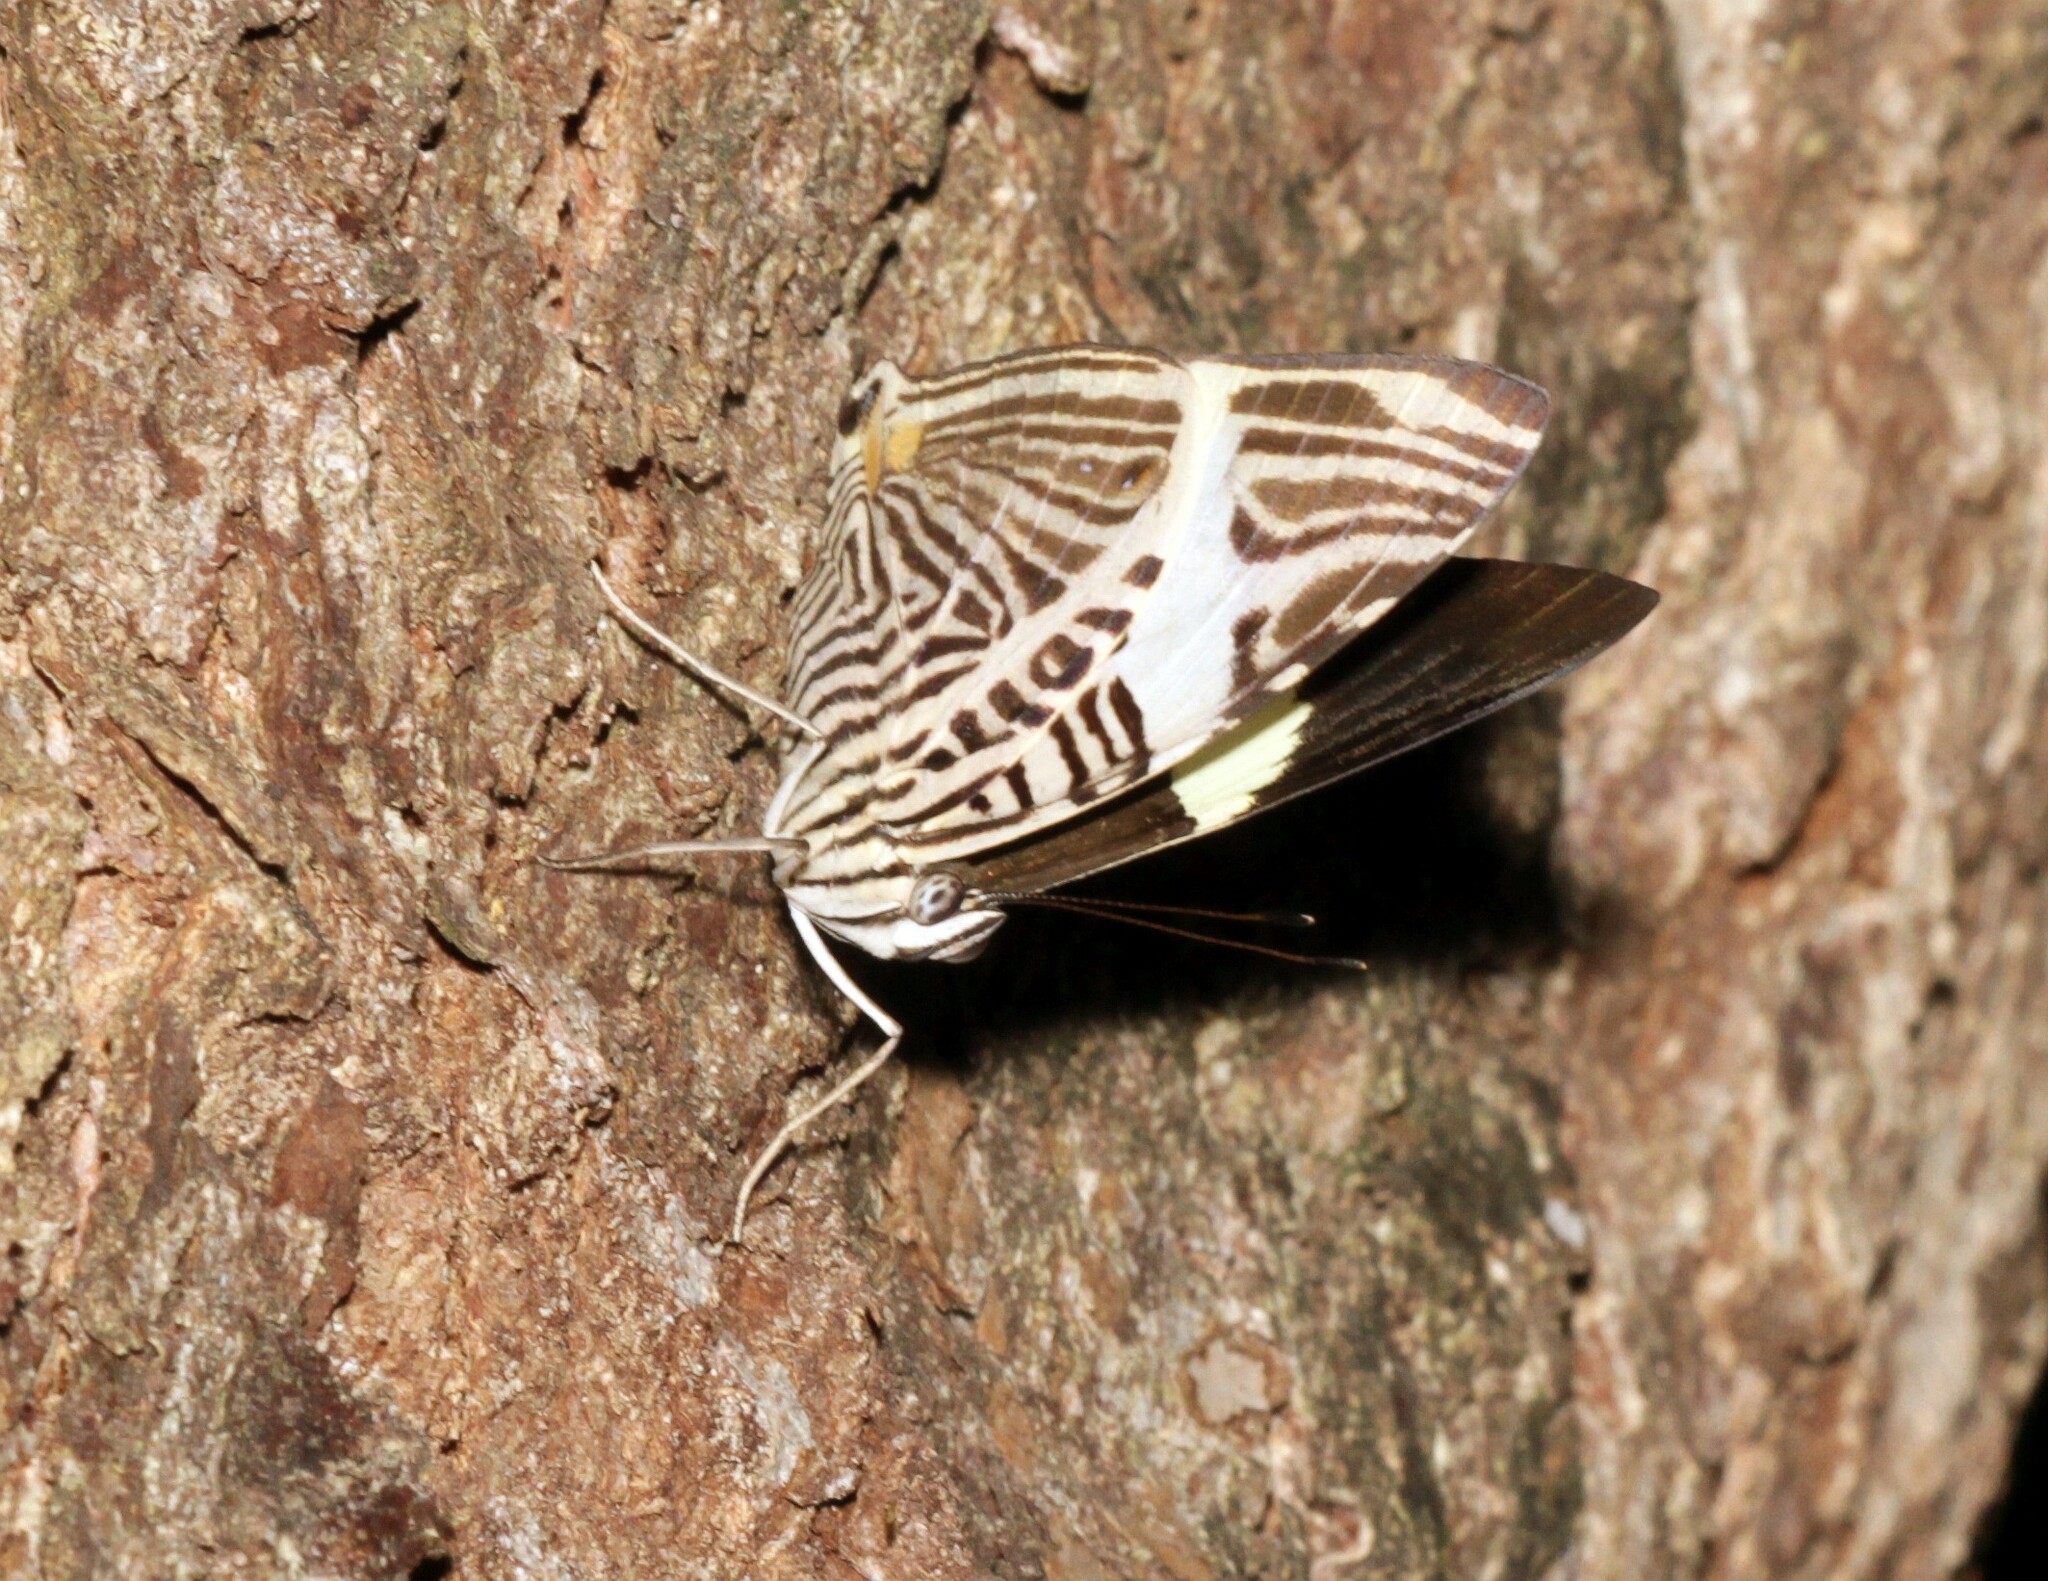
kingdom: Animalia
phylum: Arthropoda
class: Insecta
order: Lepidoptera
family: Nymphalidae
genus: Colobura
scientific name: Colobura dirce
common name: Dirce beauty
